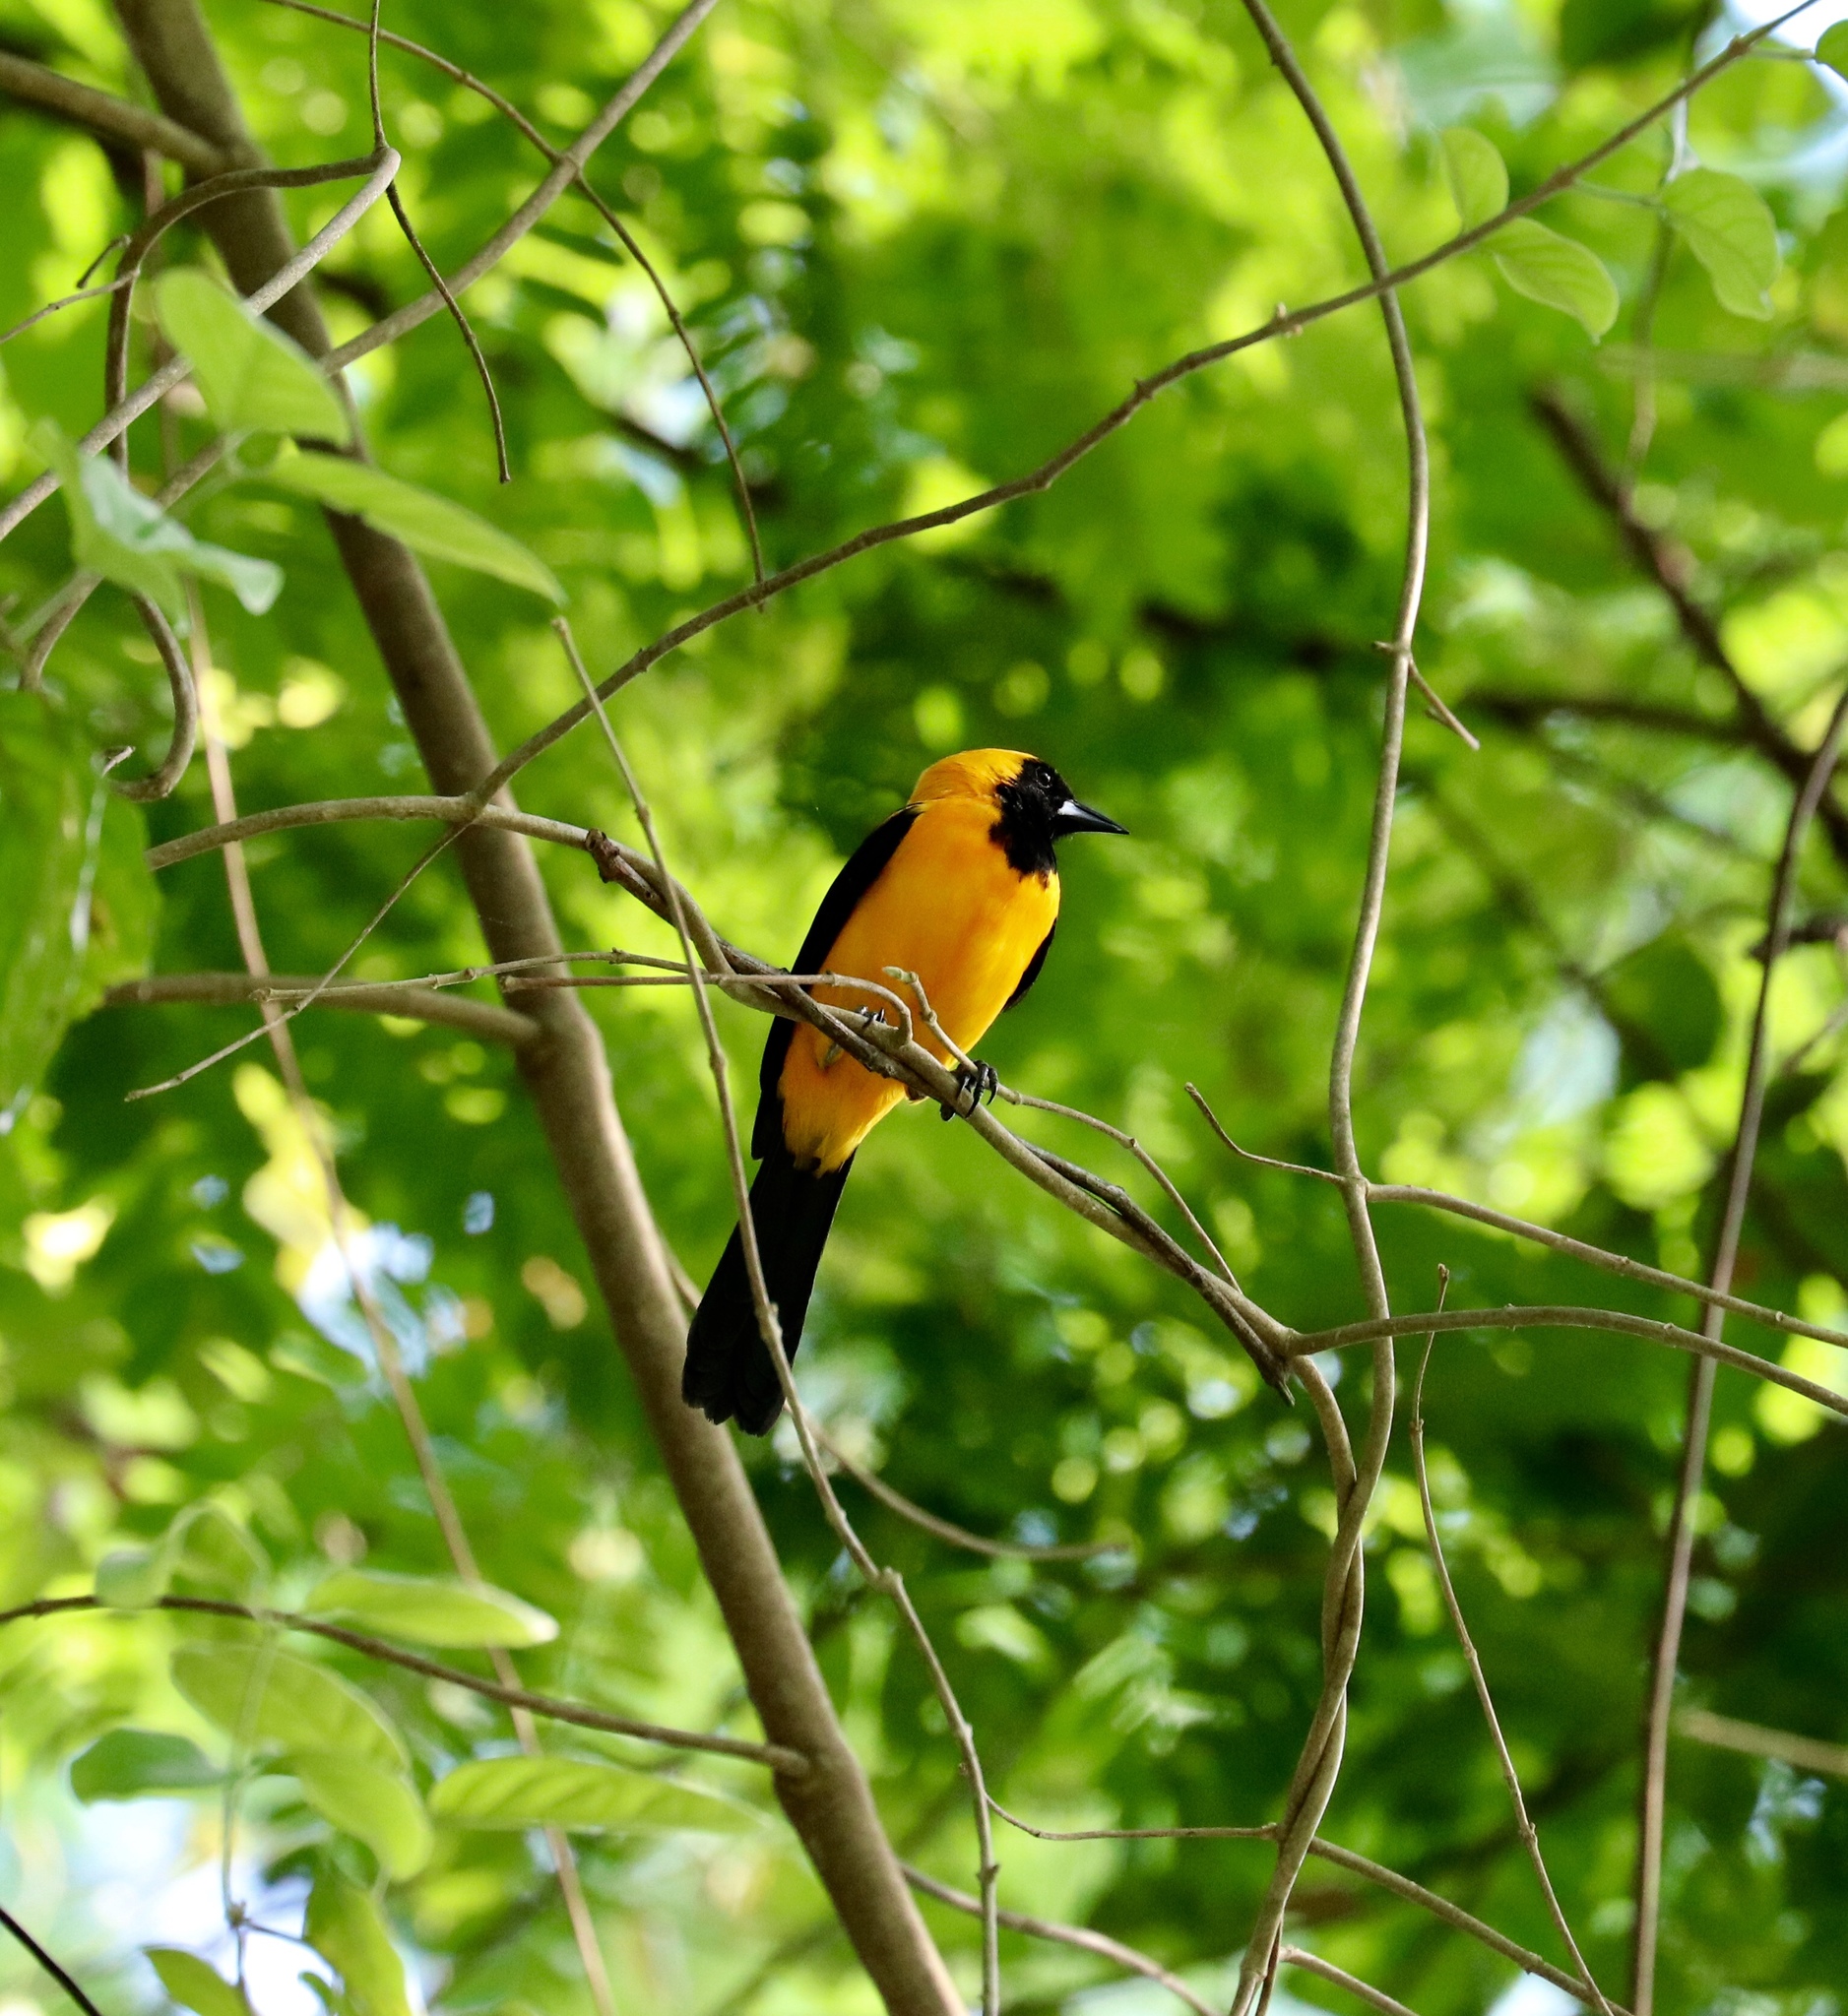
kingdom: Animalia
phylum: Chordata
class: Aves
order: Passeriformes
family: Icteridae
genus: Icterus
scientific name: Icterus chrysater
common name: Yellow-backed oriole
